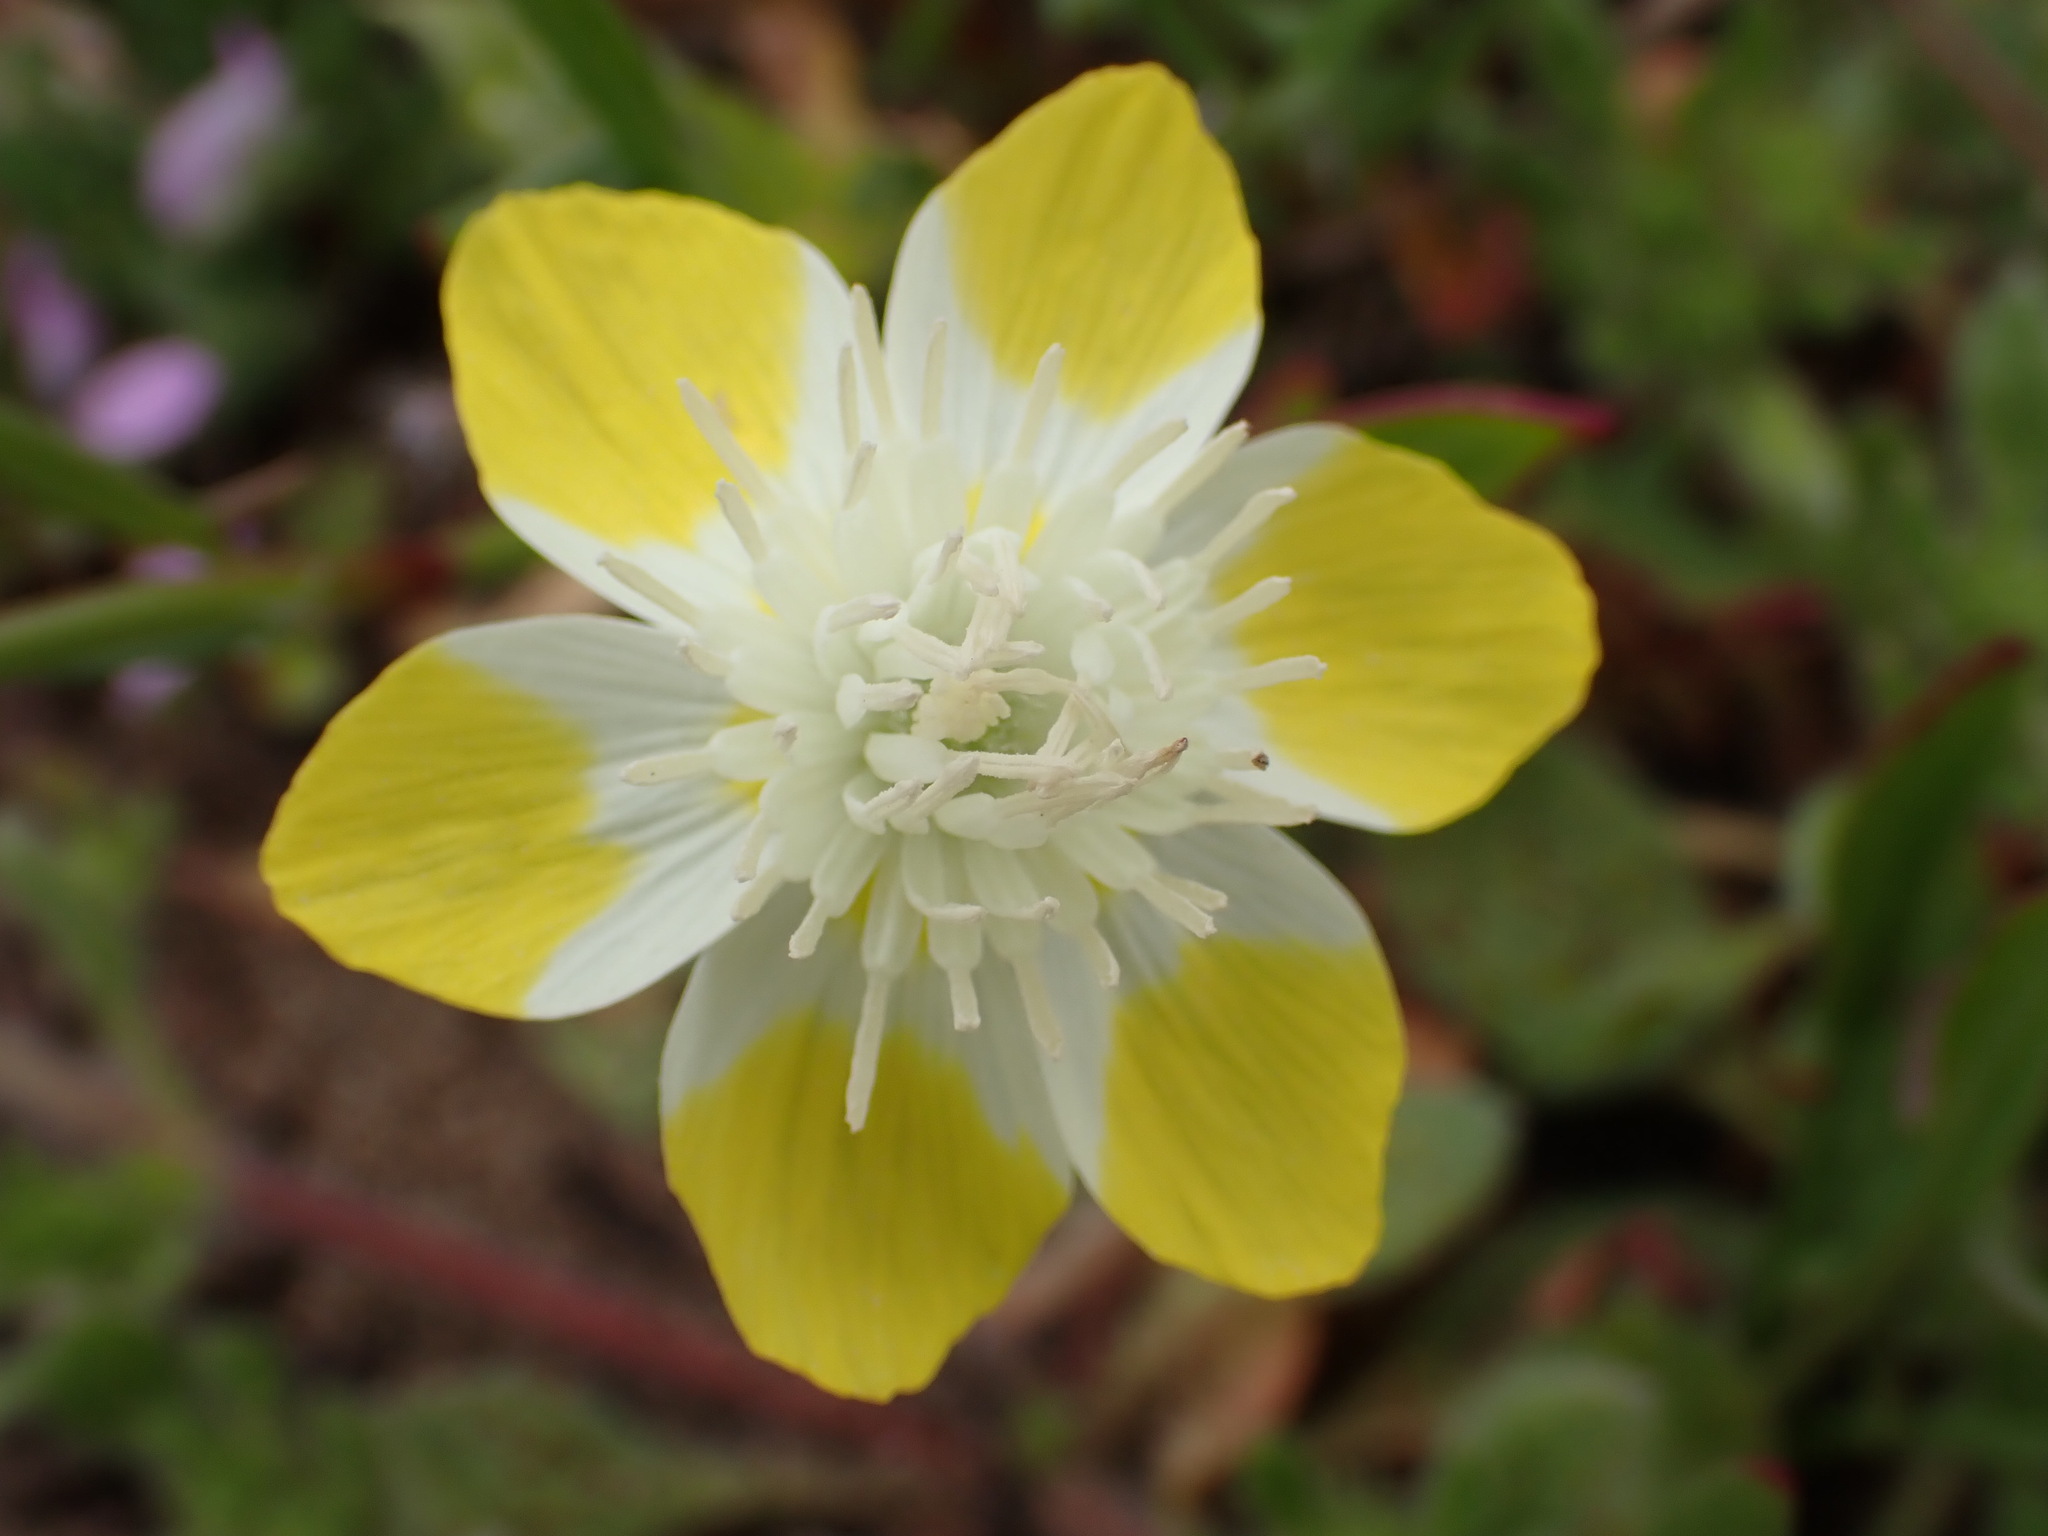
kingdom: Plantae
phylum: Tracheophyta
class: Magnoliopsida
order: Ranunculales
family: Papaveraceae
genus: Platystemon
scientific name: Platystemon californicus
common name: Cream-cups
